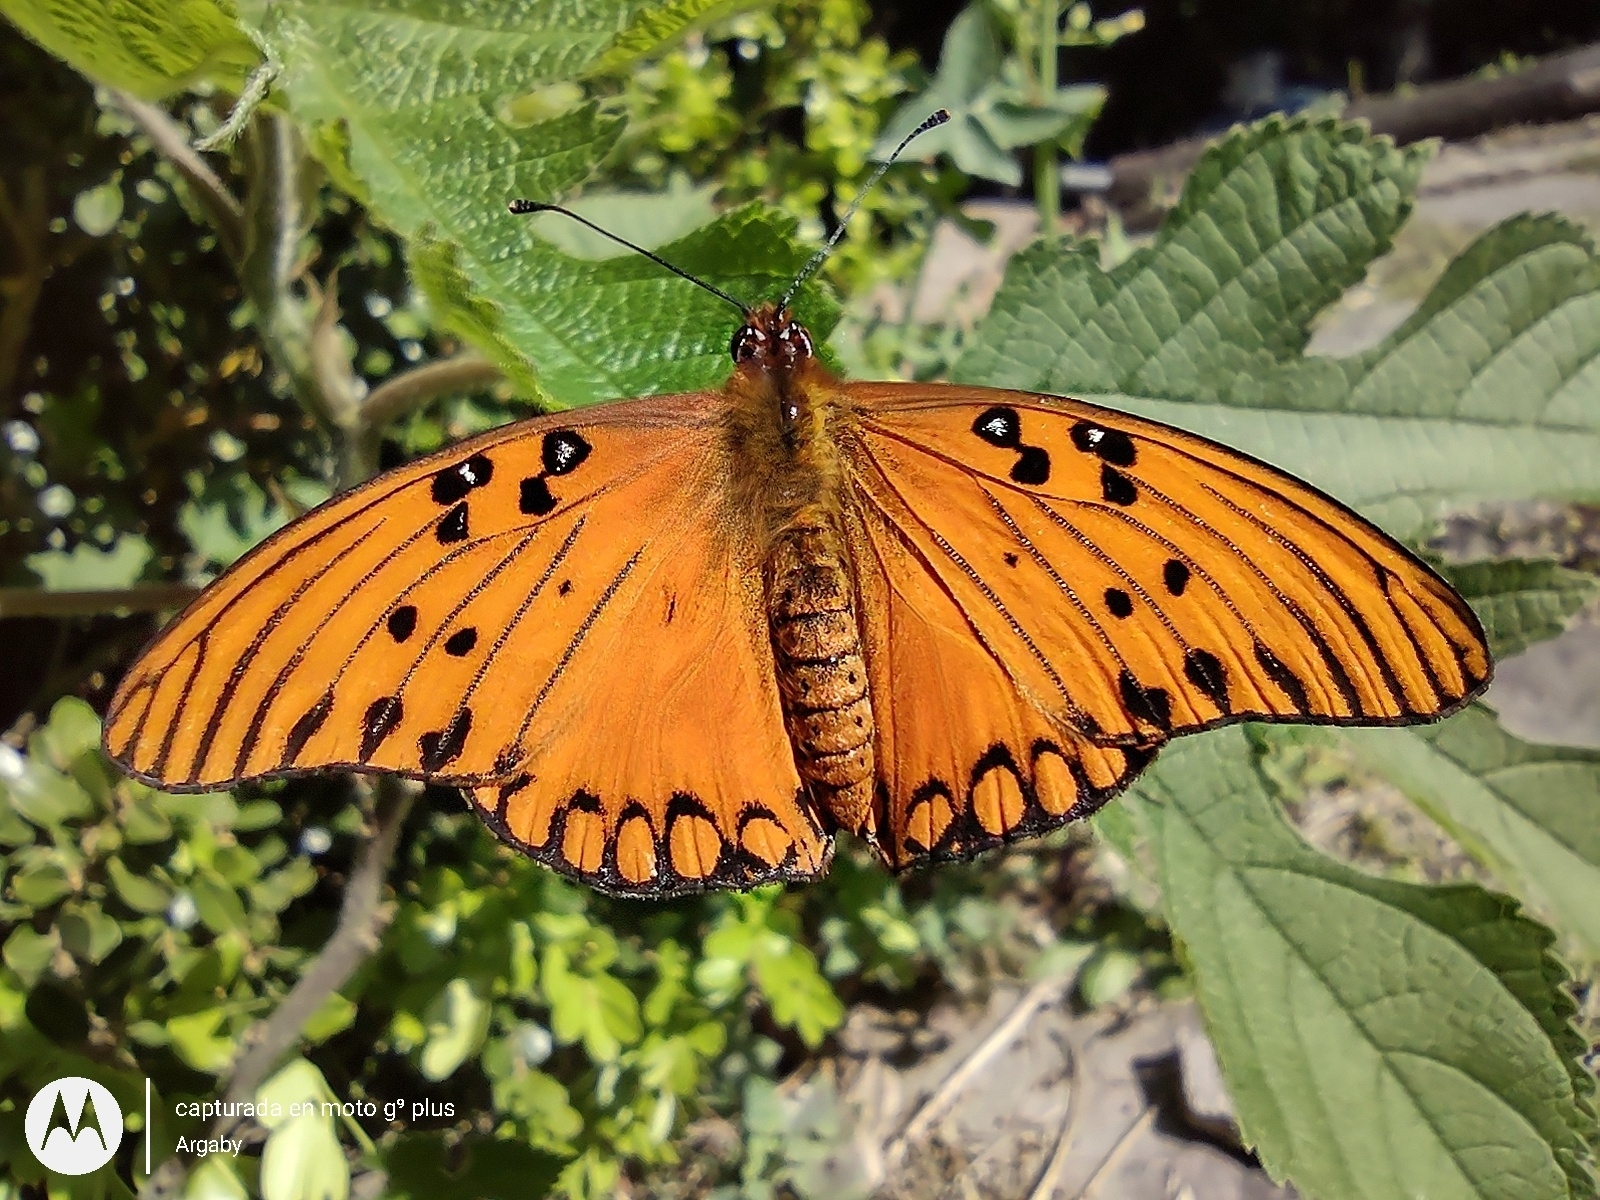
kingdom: Animalia
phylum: Arthropoda
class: Insecta
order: Lepidoptera
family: Nymphalidae
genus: Dione
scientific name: Dione vanillae
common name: Gulf fritillary
